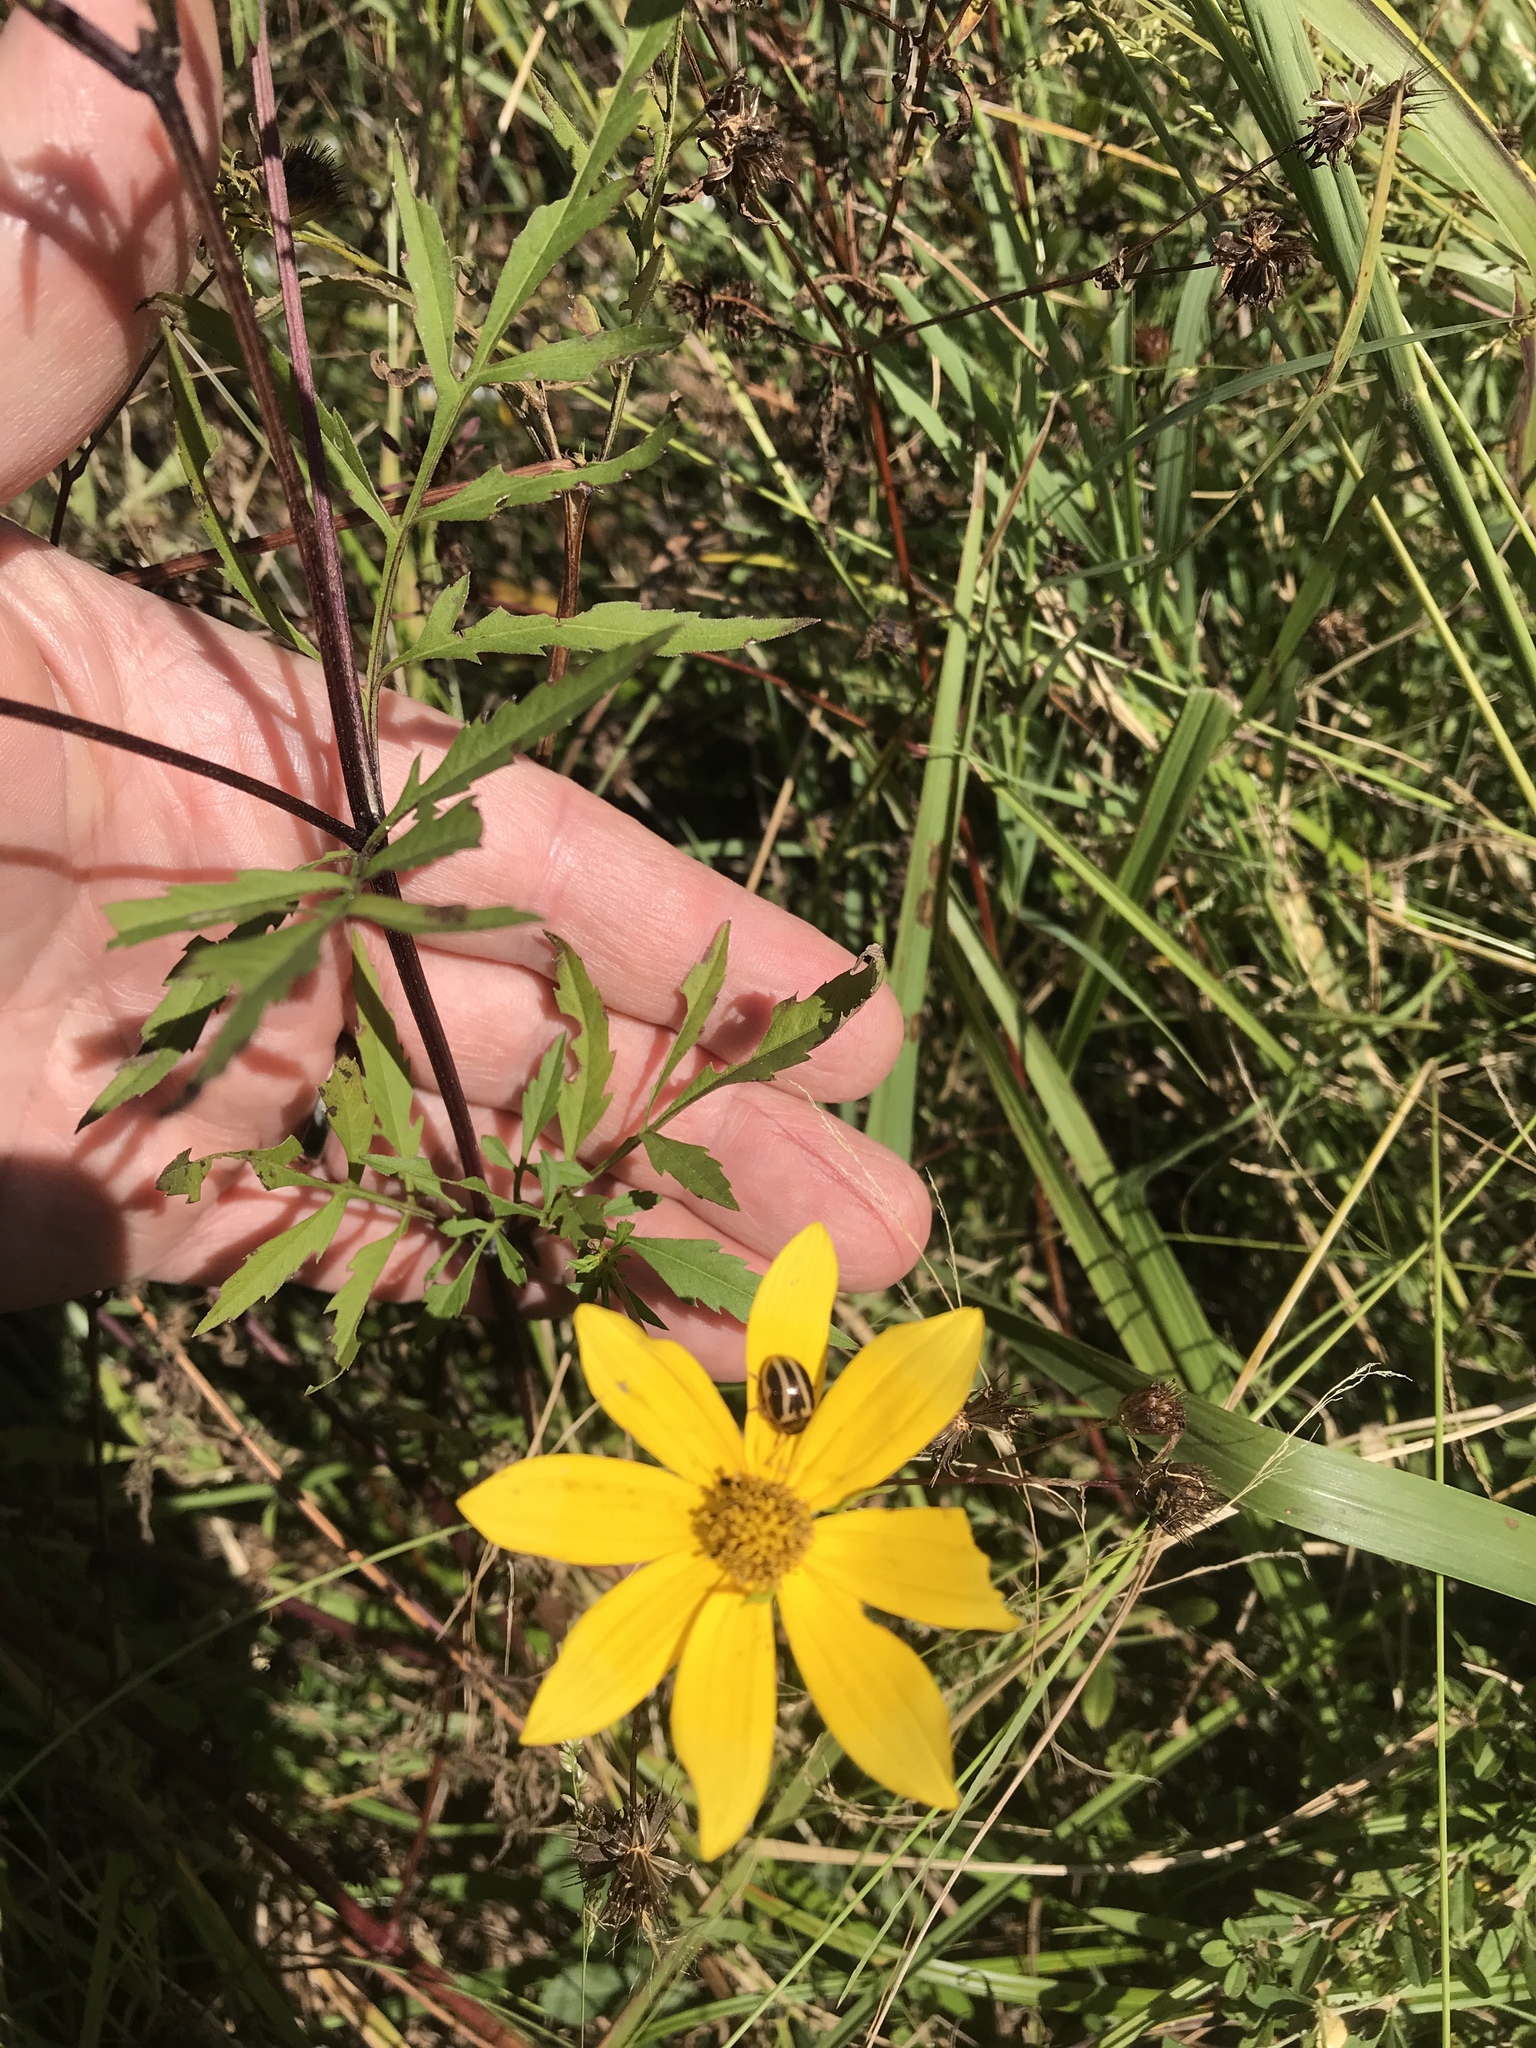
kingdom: Plantae
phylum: Tracheophyta
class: Magnoliopsida
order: Asterales
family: Asteraceae
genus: Bidens
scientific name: Bidens aristosa
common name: Western tickseed
